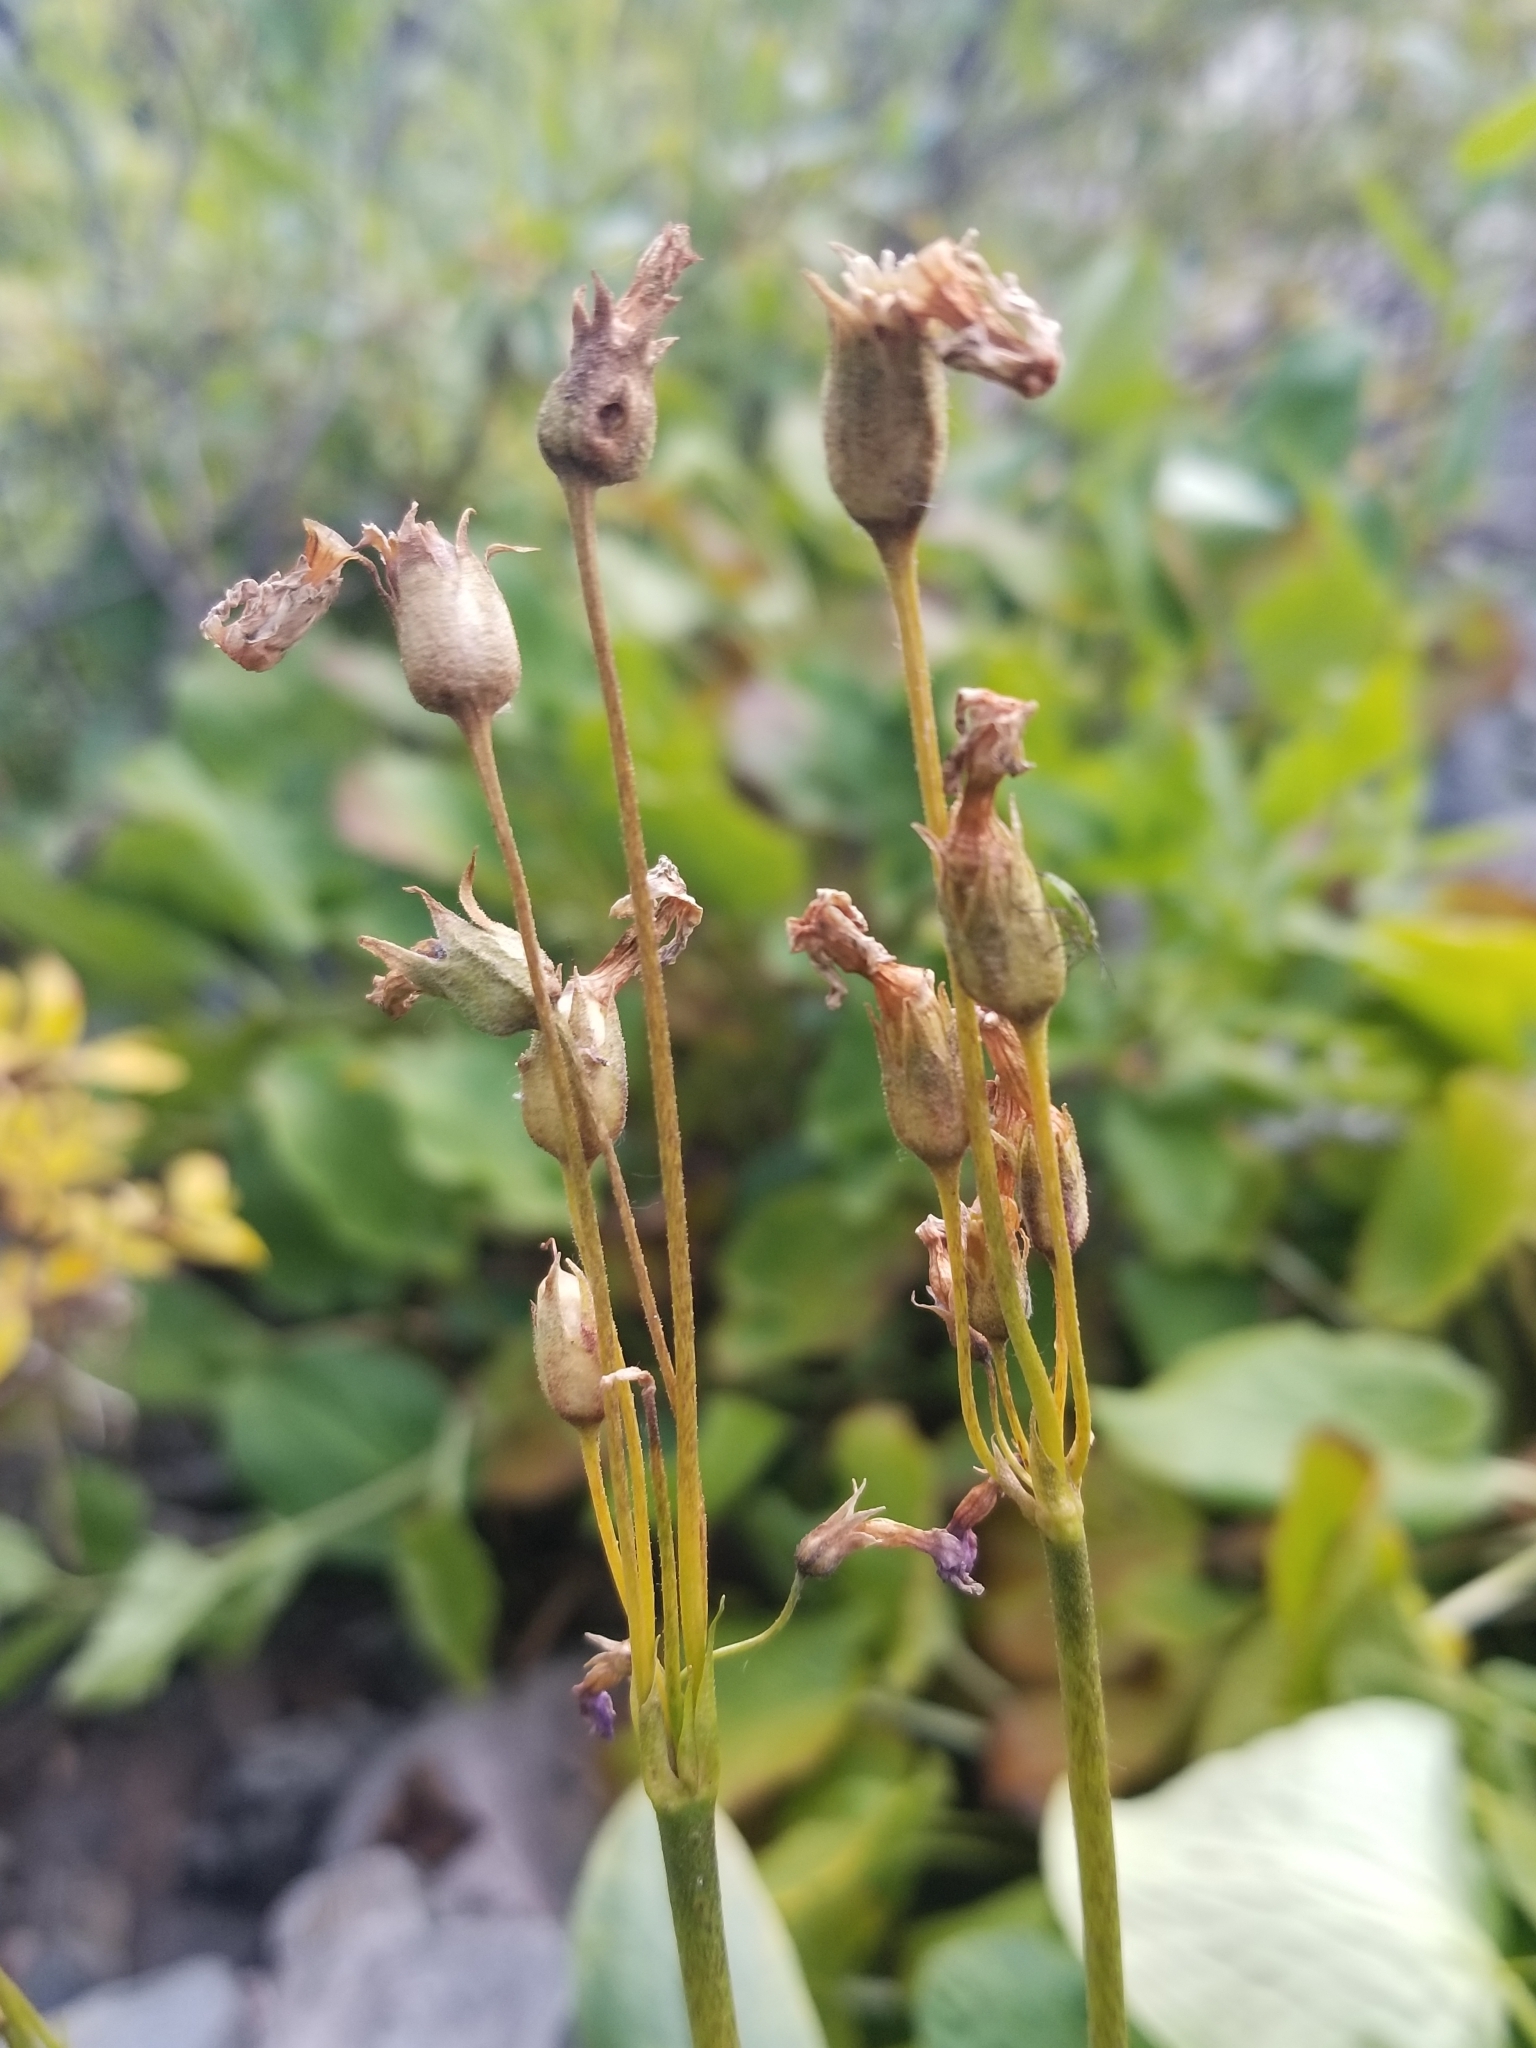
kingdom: Plantae
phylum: Tracheophyta
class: Magnoliopsida
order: Ericales
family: Primulaceae
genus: Primula
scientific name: Primula parryi
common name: Parry's primrose
